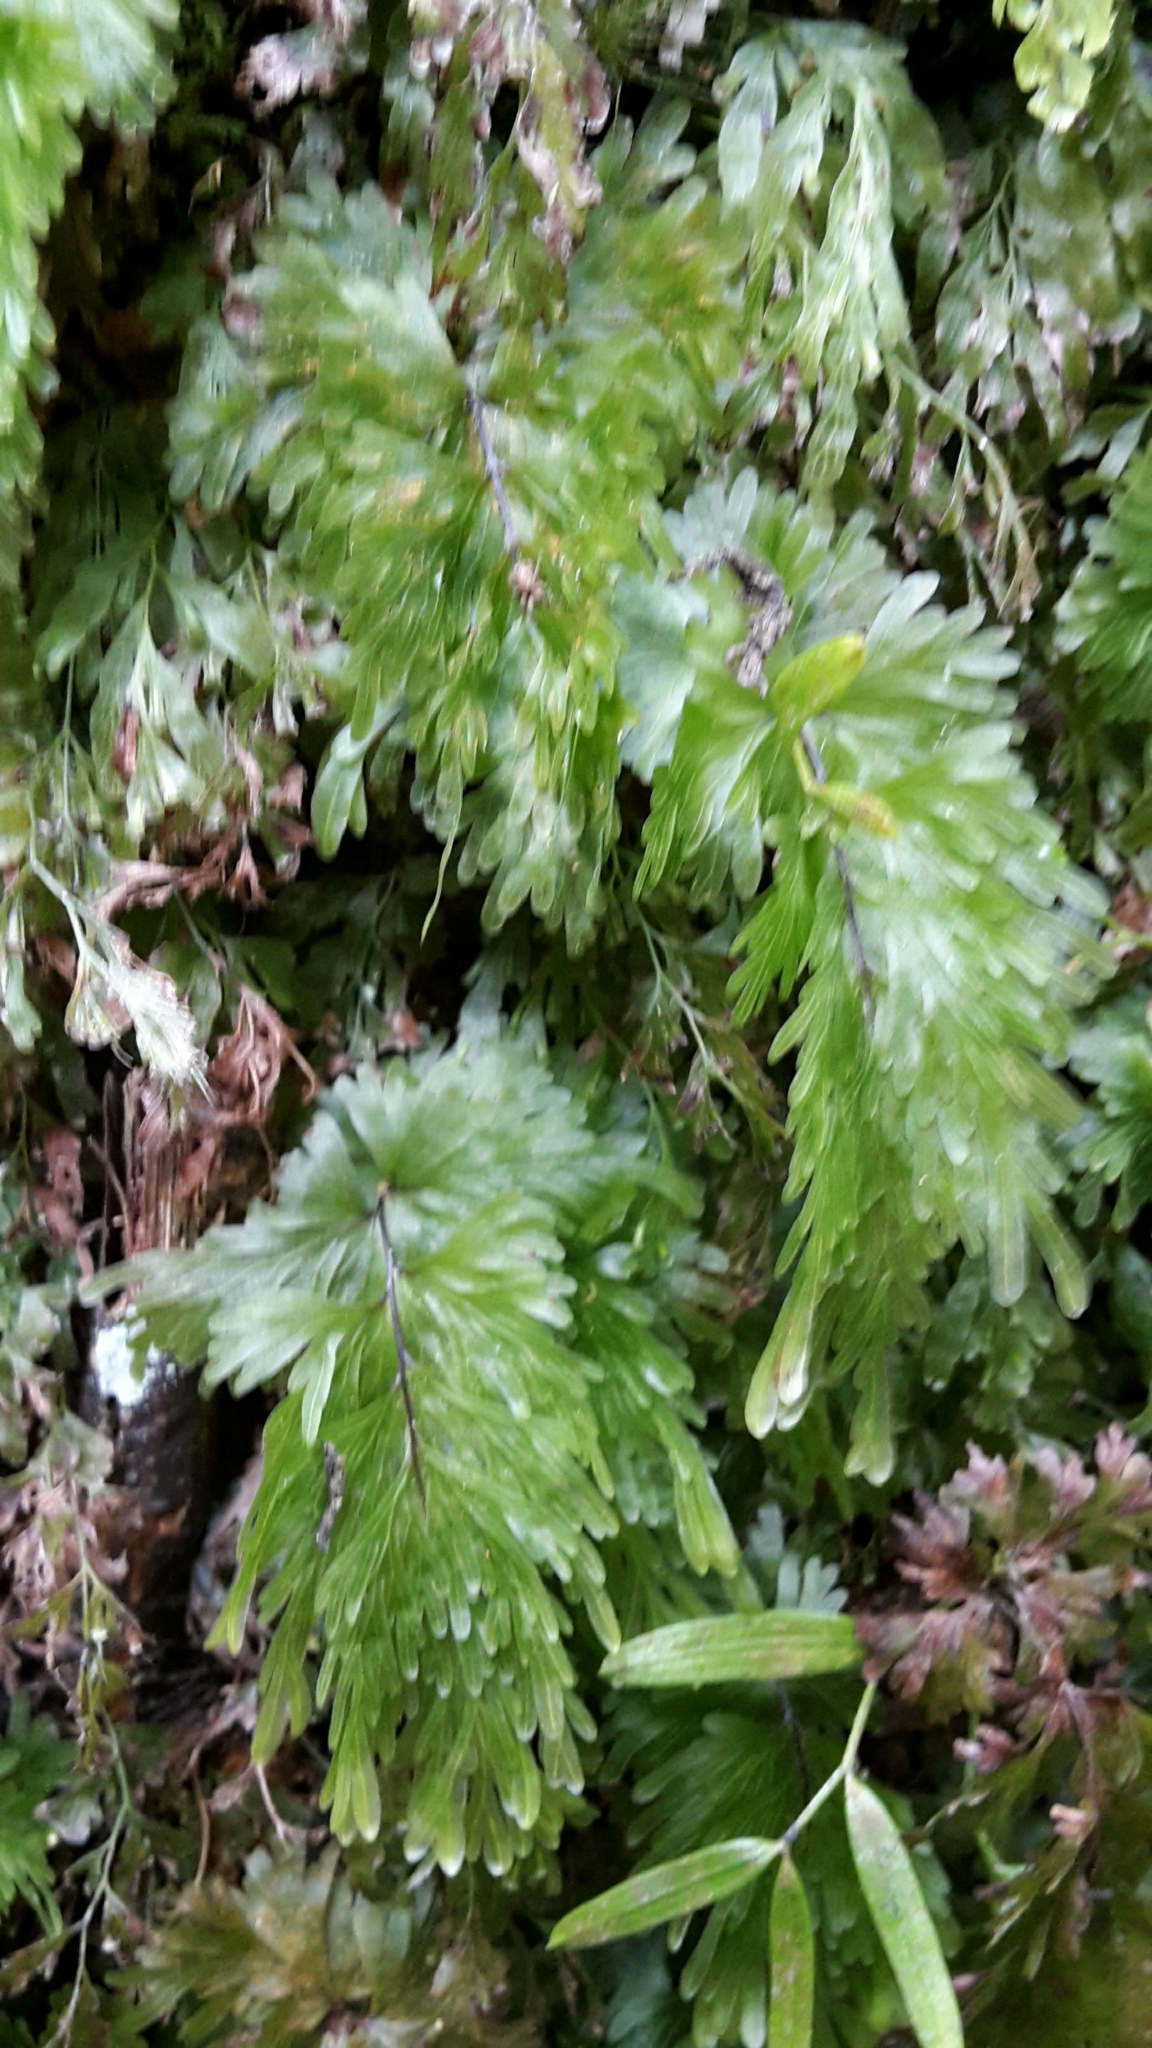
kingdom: Plantae
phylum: Tracheophyta
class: Polypodiopsida
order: Hymenophyllales
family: Hymenophyllaceae
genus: Hymenophyllum
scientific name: Hymenophyllum flabellatum
